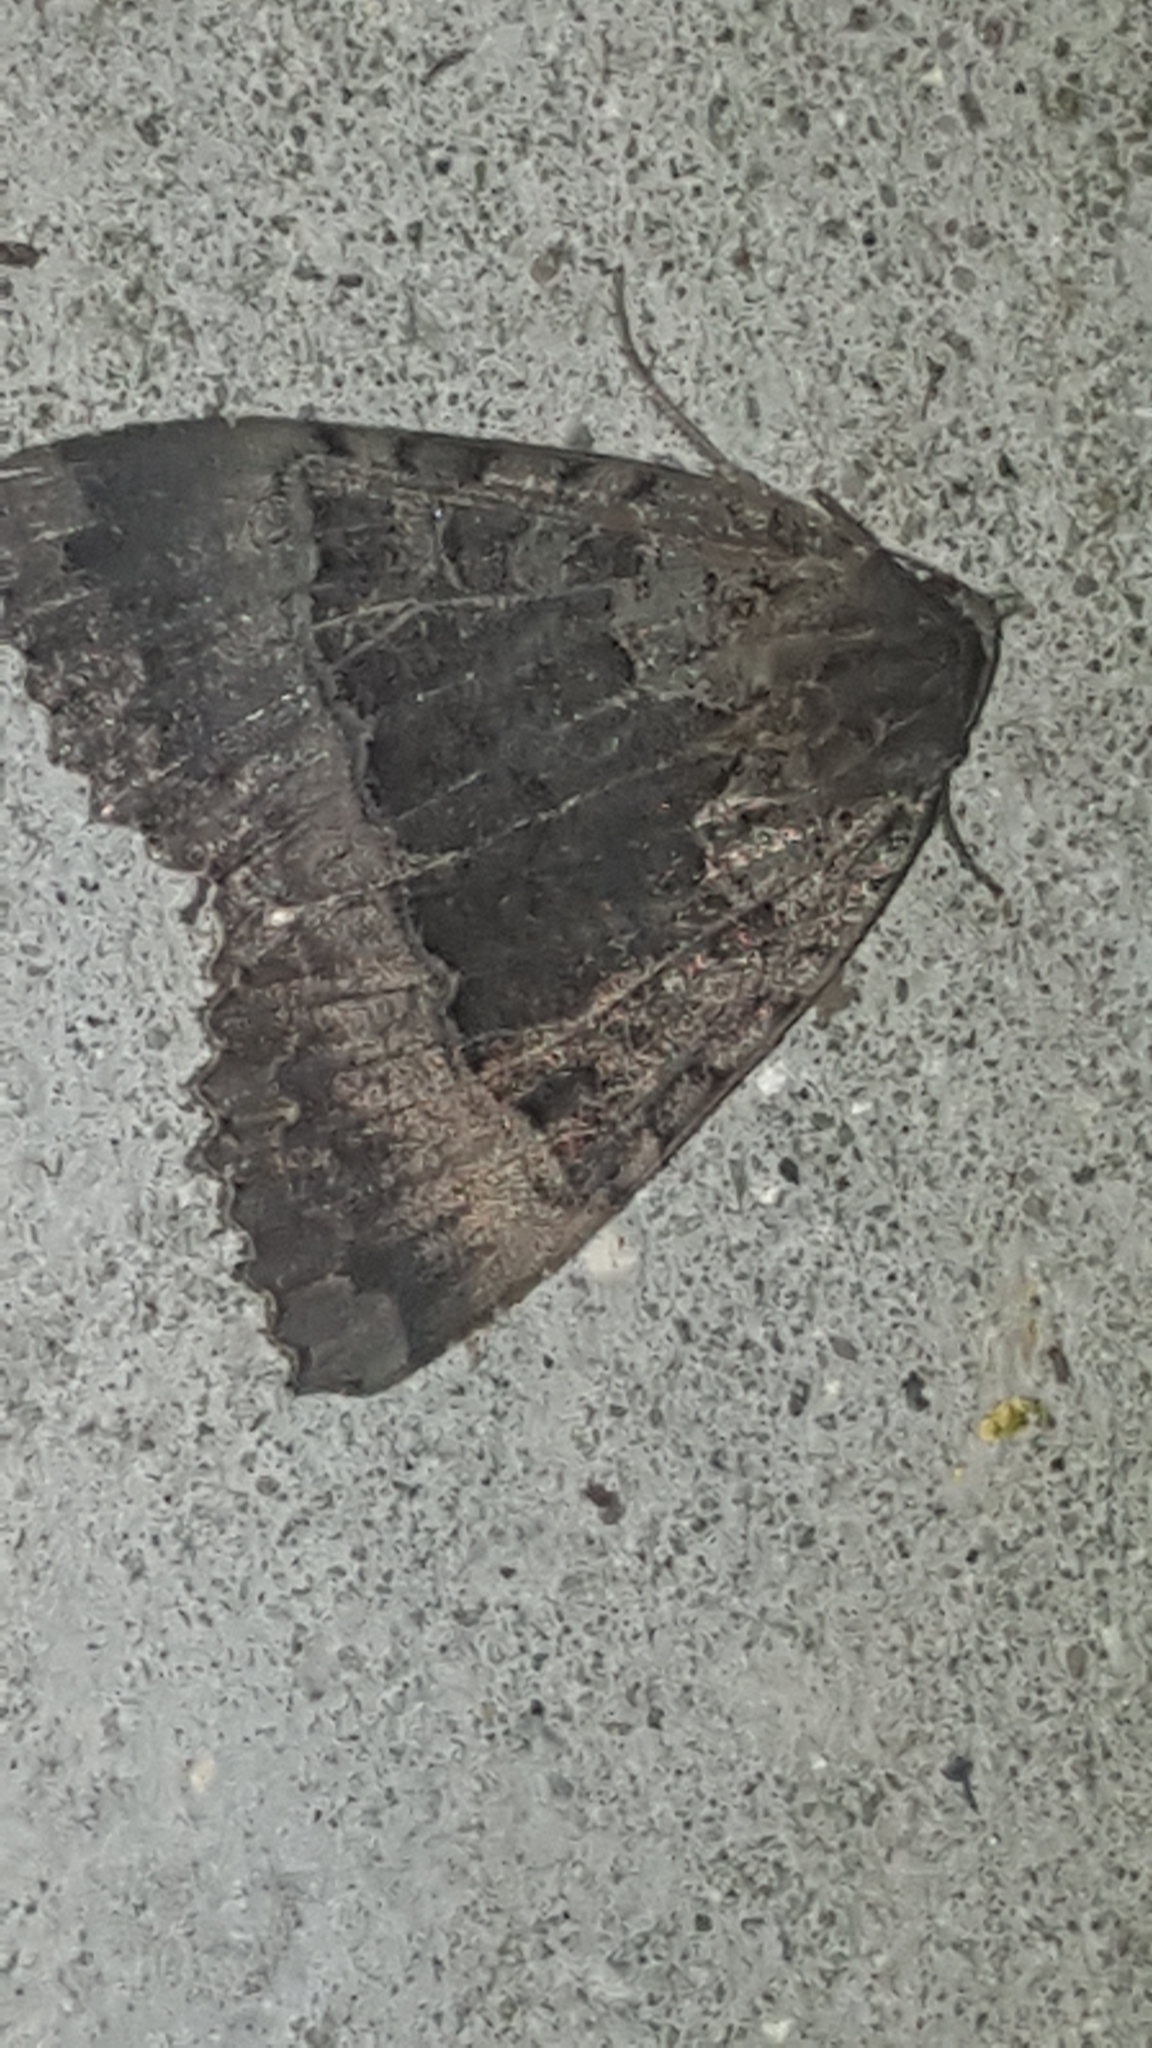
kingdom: Animalia
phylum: Arthropoda
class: Insecta
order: Lepidoptera
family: Noctuidae
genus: Mormo
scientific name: Mormo maura
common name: Old lady
